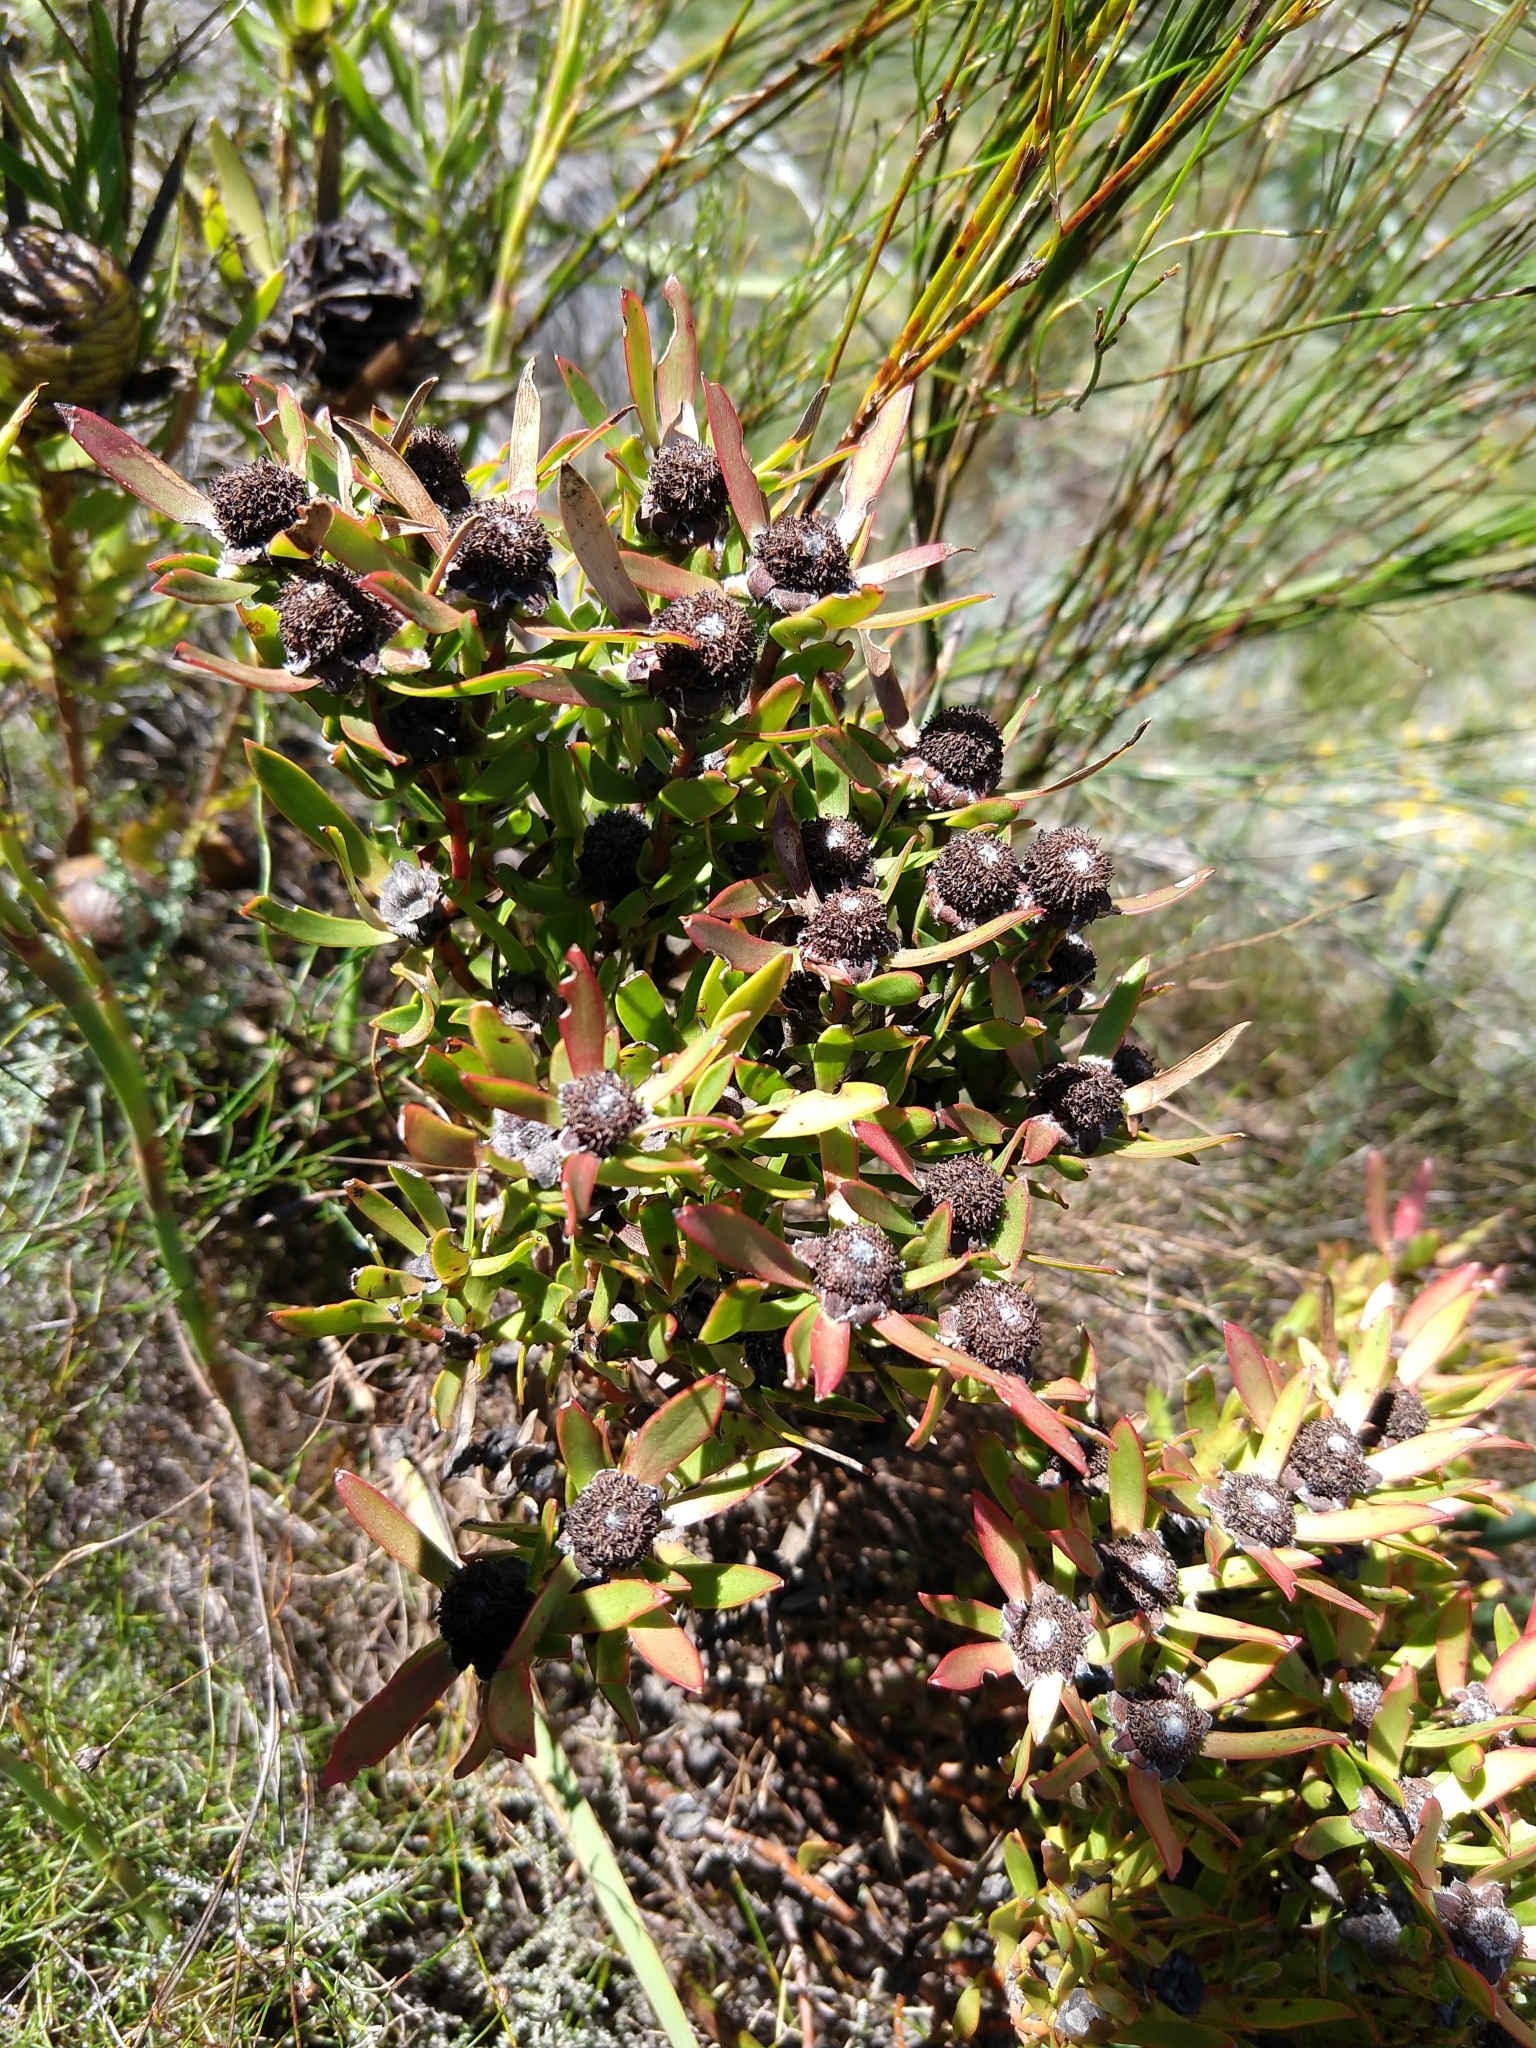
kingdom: Plantae
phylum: Tracheophyta
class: Magnoliopsida
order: Proteales
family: Proteaceae
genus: Leucadendron
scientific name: Leucadendron spissifolium
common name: Spear-leaf conebush
